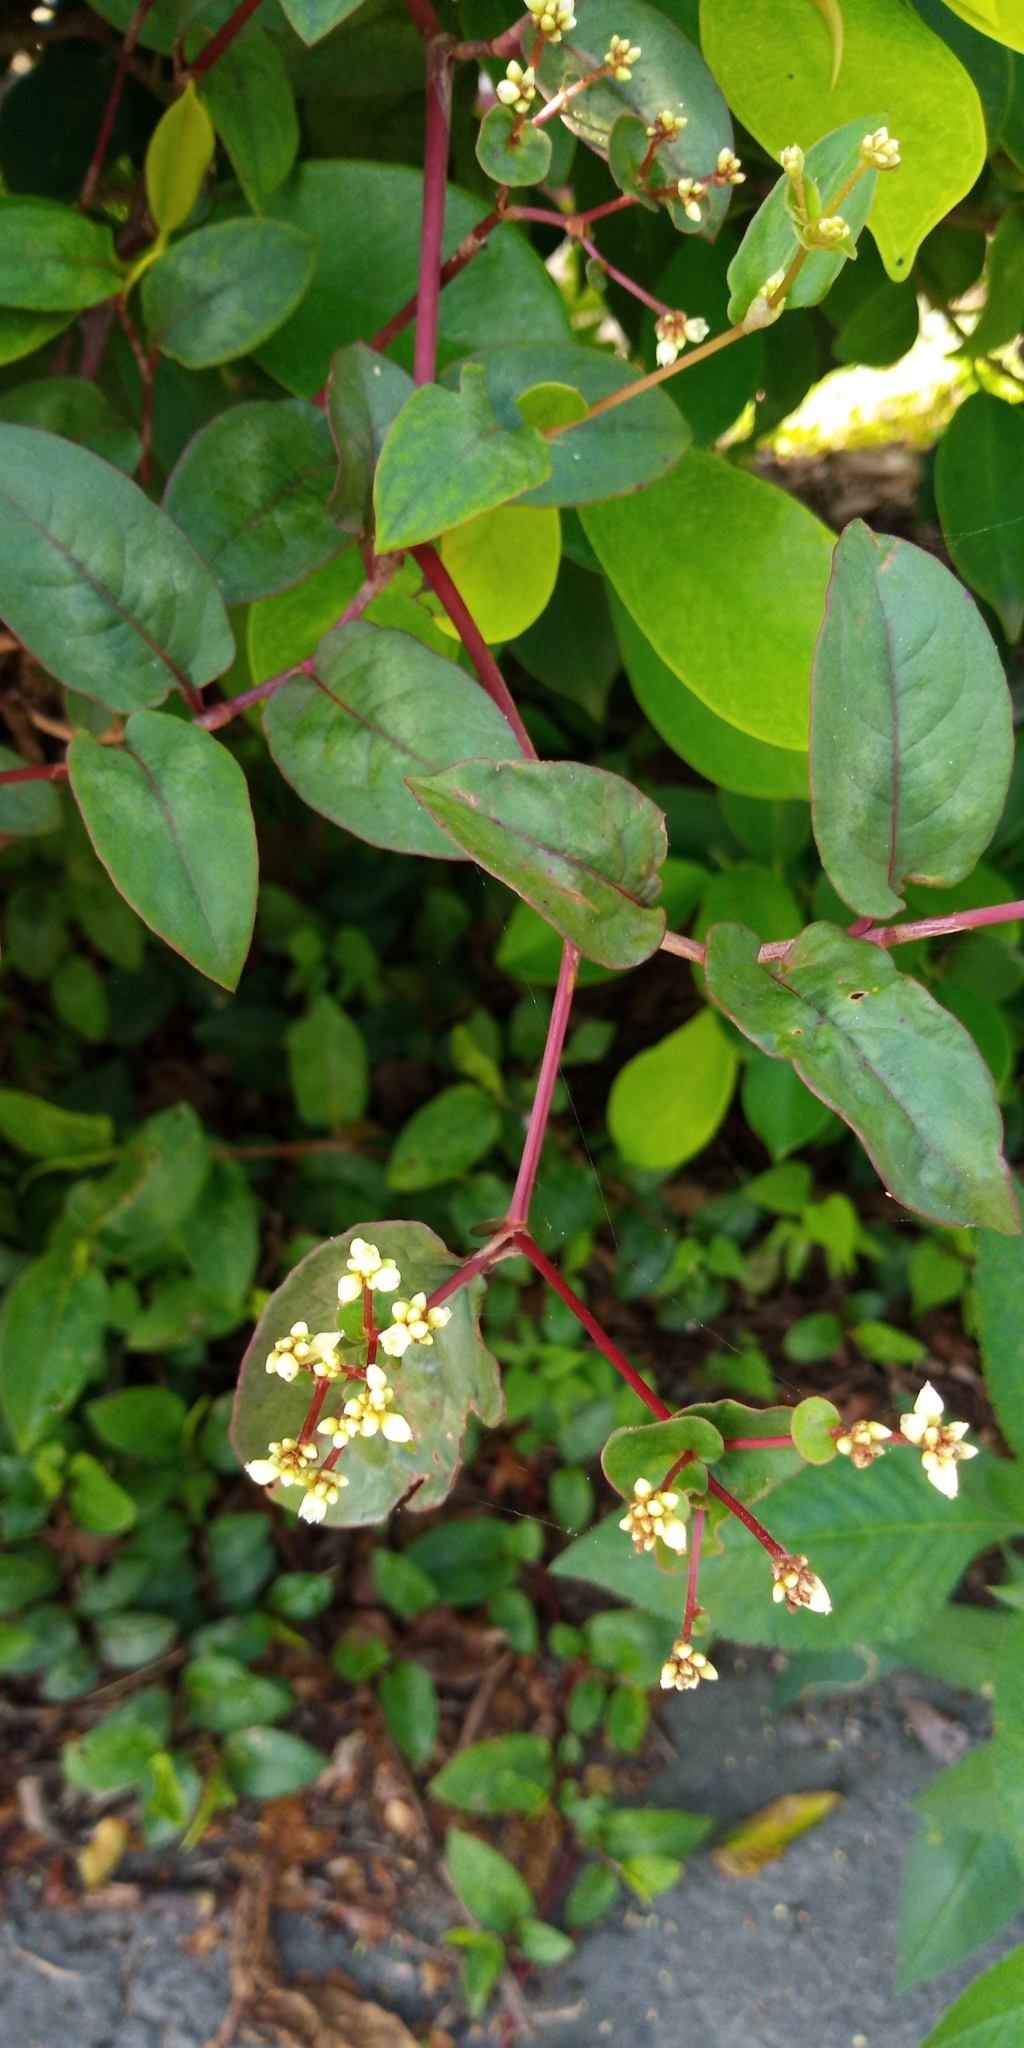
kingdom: Plantae
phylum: Tracheophyta
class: Magnoliopsida
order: Caryophyllales
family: Polygonaceae
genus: Persicaria
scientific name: Persicaria chinensis
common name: Chinese knotweed
